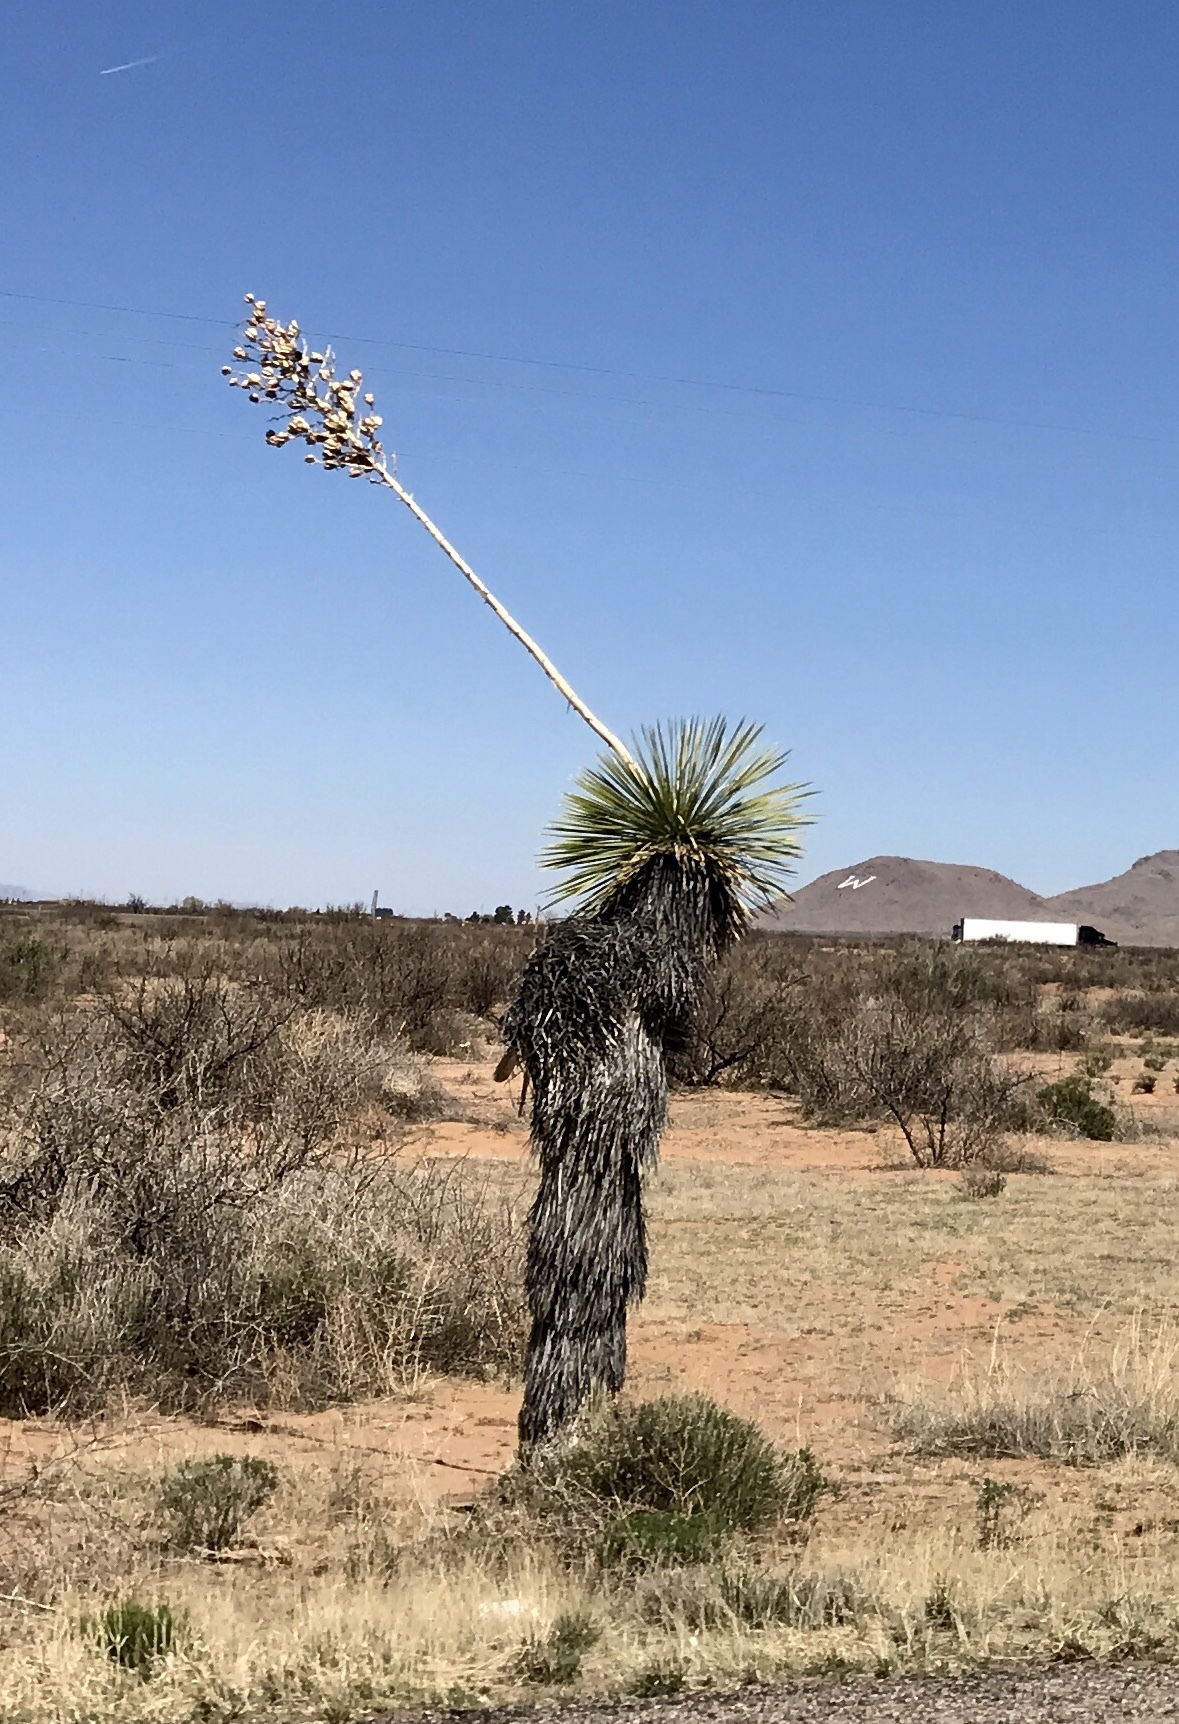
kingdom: Plantae
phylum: Tracheophyta
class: Liliopsida
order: Asparagales
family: Asparagaceae
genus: Yucca
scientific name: Yucca elata
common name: Palmella
